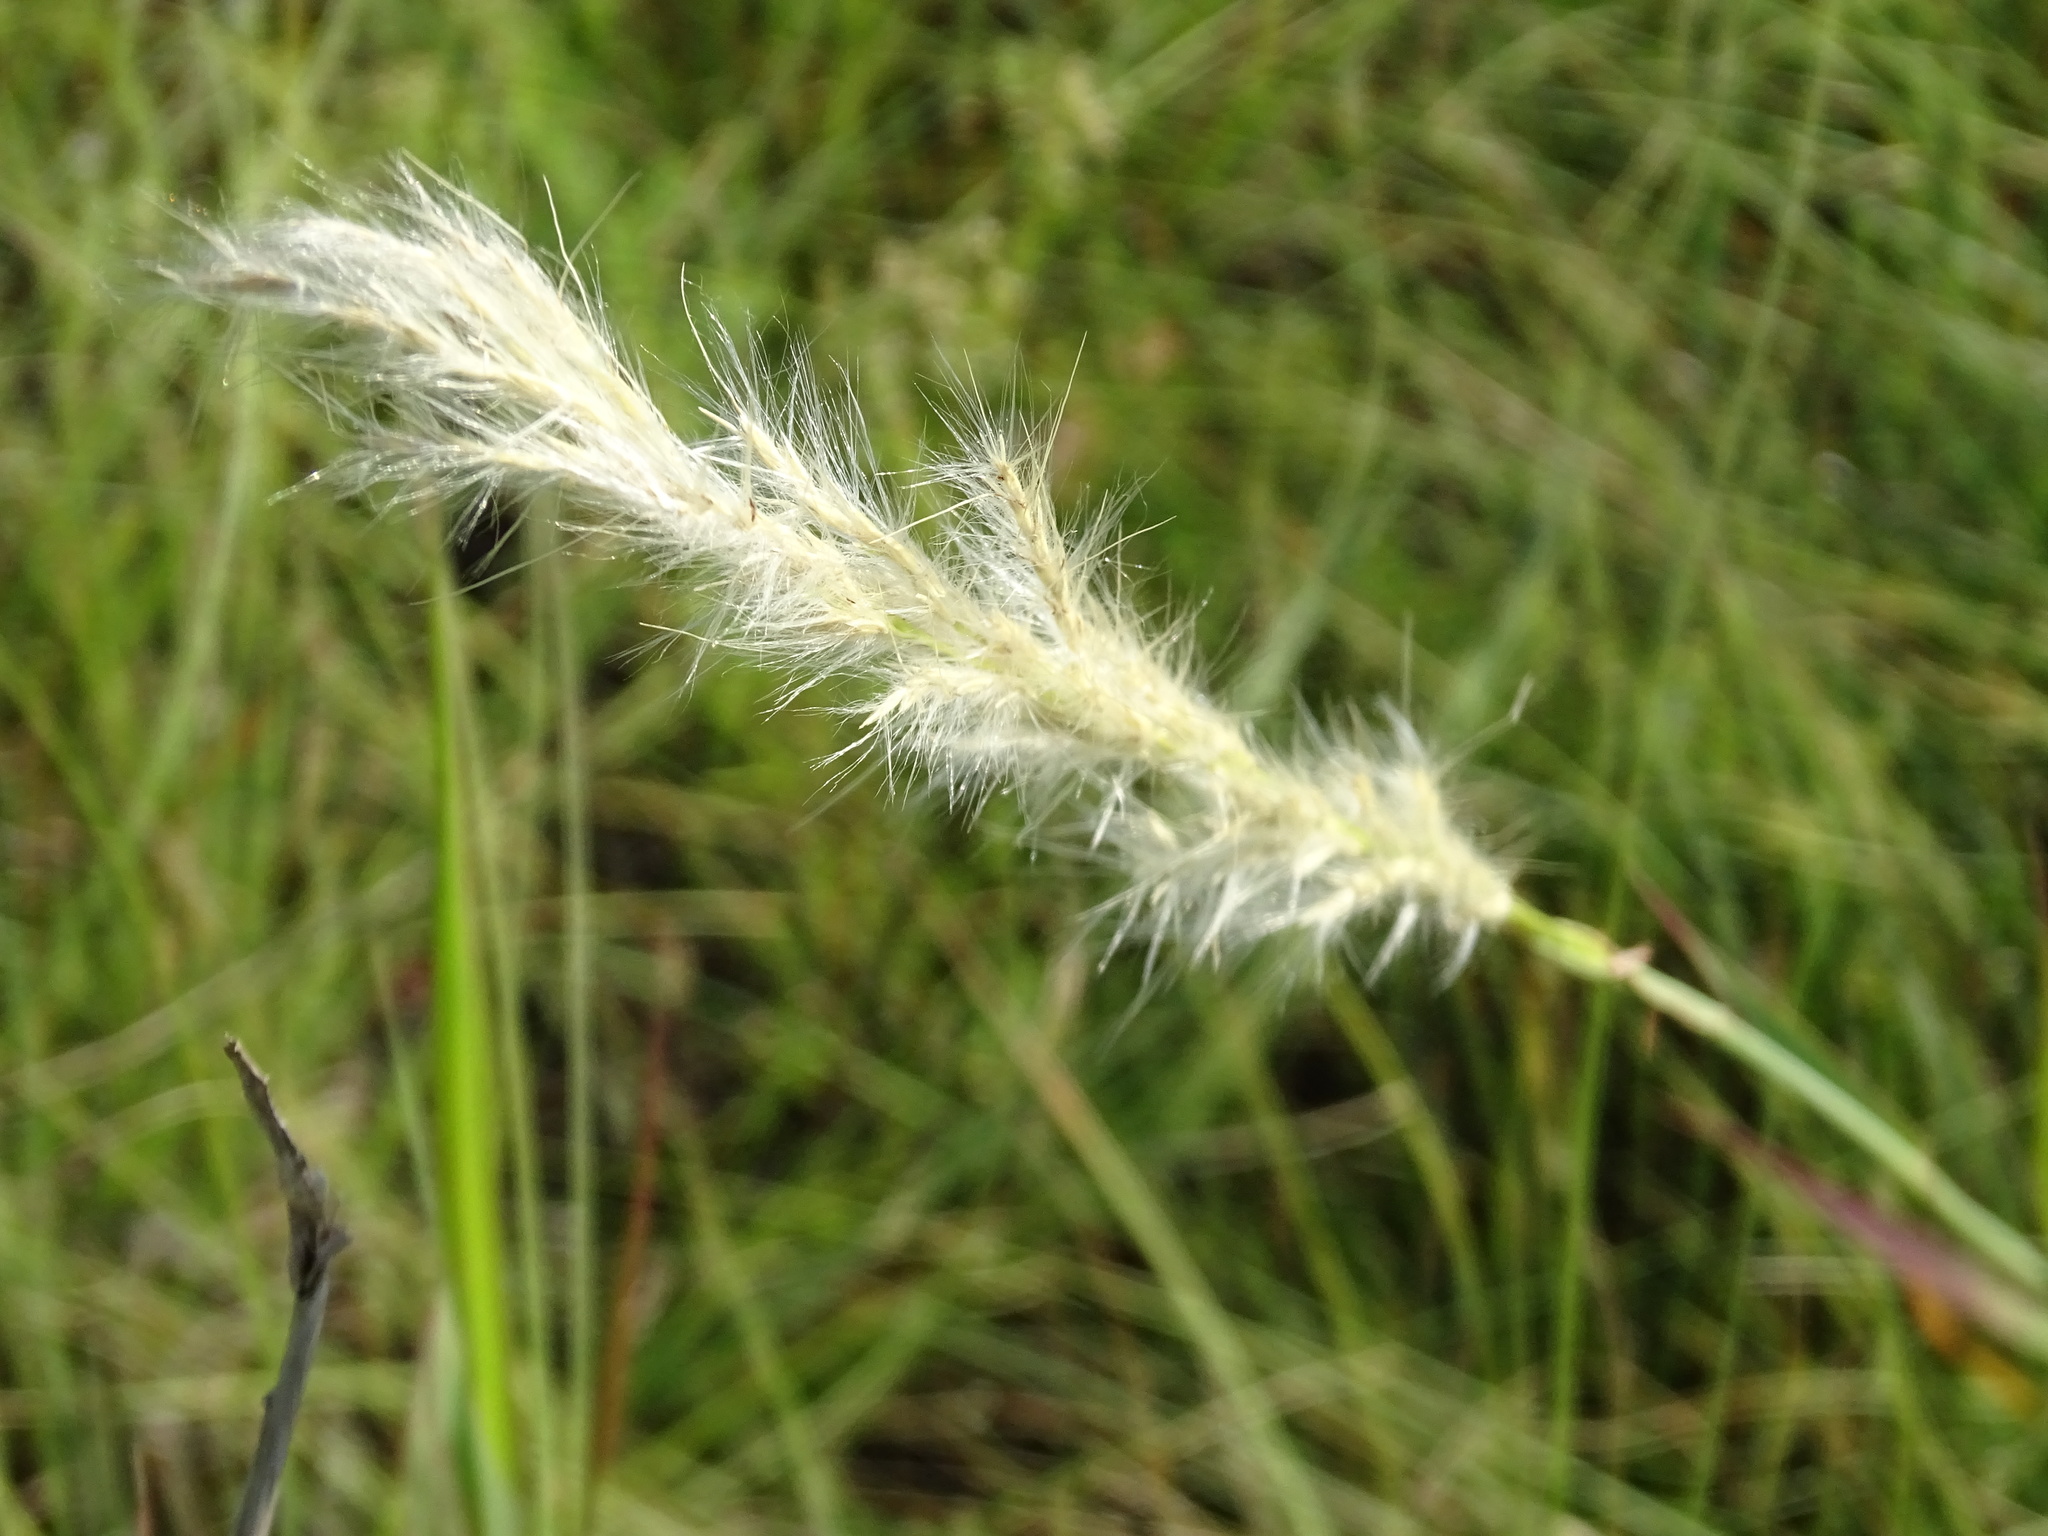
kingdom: Plantae
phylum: Tracheophyta
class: Liliopsida
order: Poales
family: Poaceae
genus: Bothriochloa
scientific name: Bothriochloa torreyana
